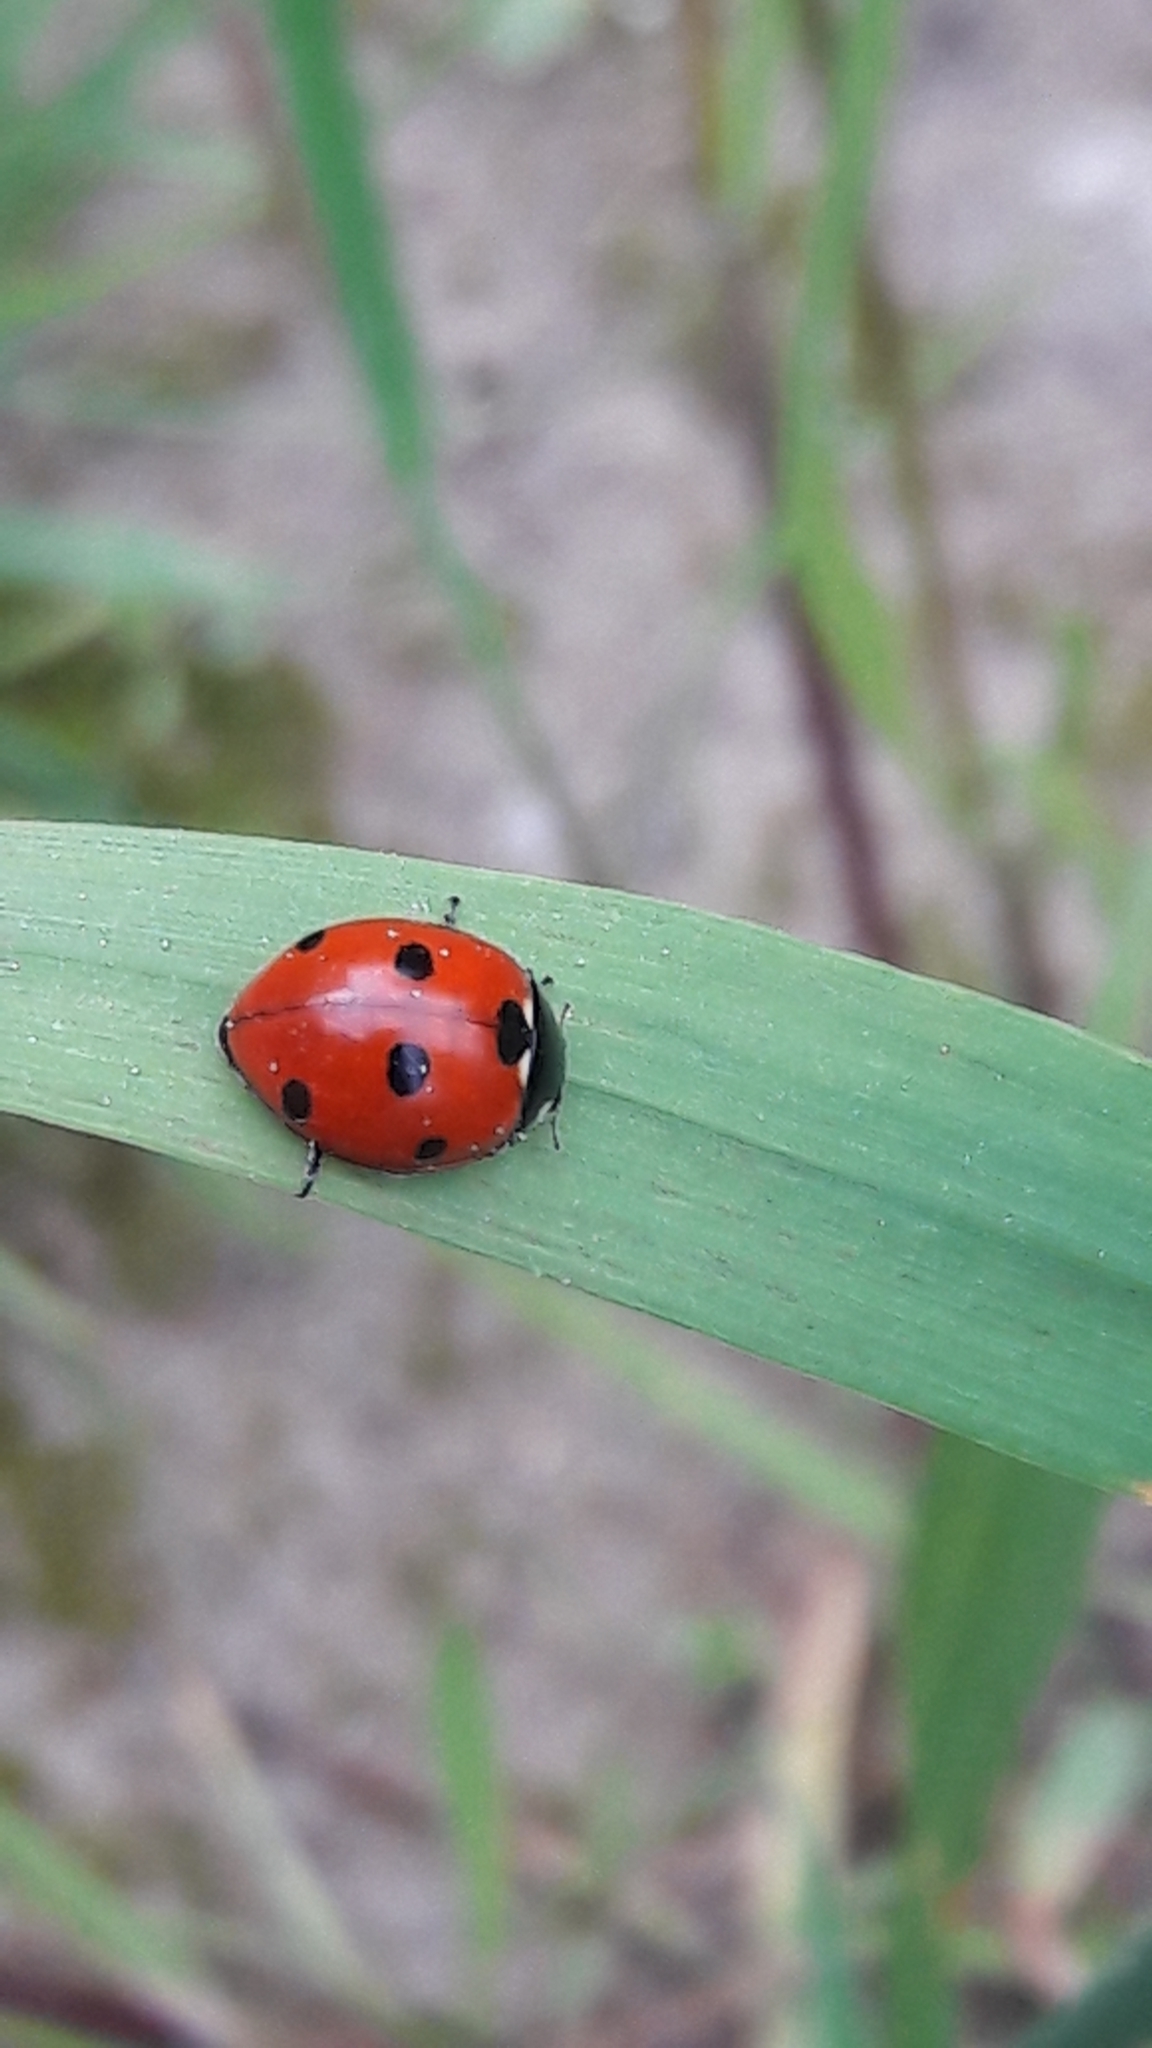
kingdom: Animalia
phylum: Arthropoda
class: Insecta
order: Coleoptera
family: Coccinellidae
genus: Coccinella
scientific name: Coccinella septempunctata
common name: Sevenspotted lady beetle
